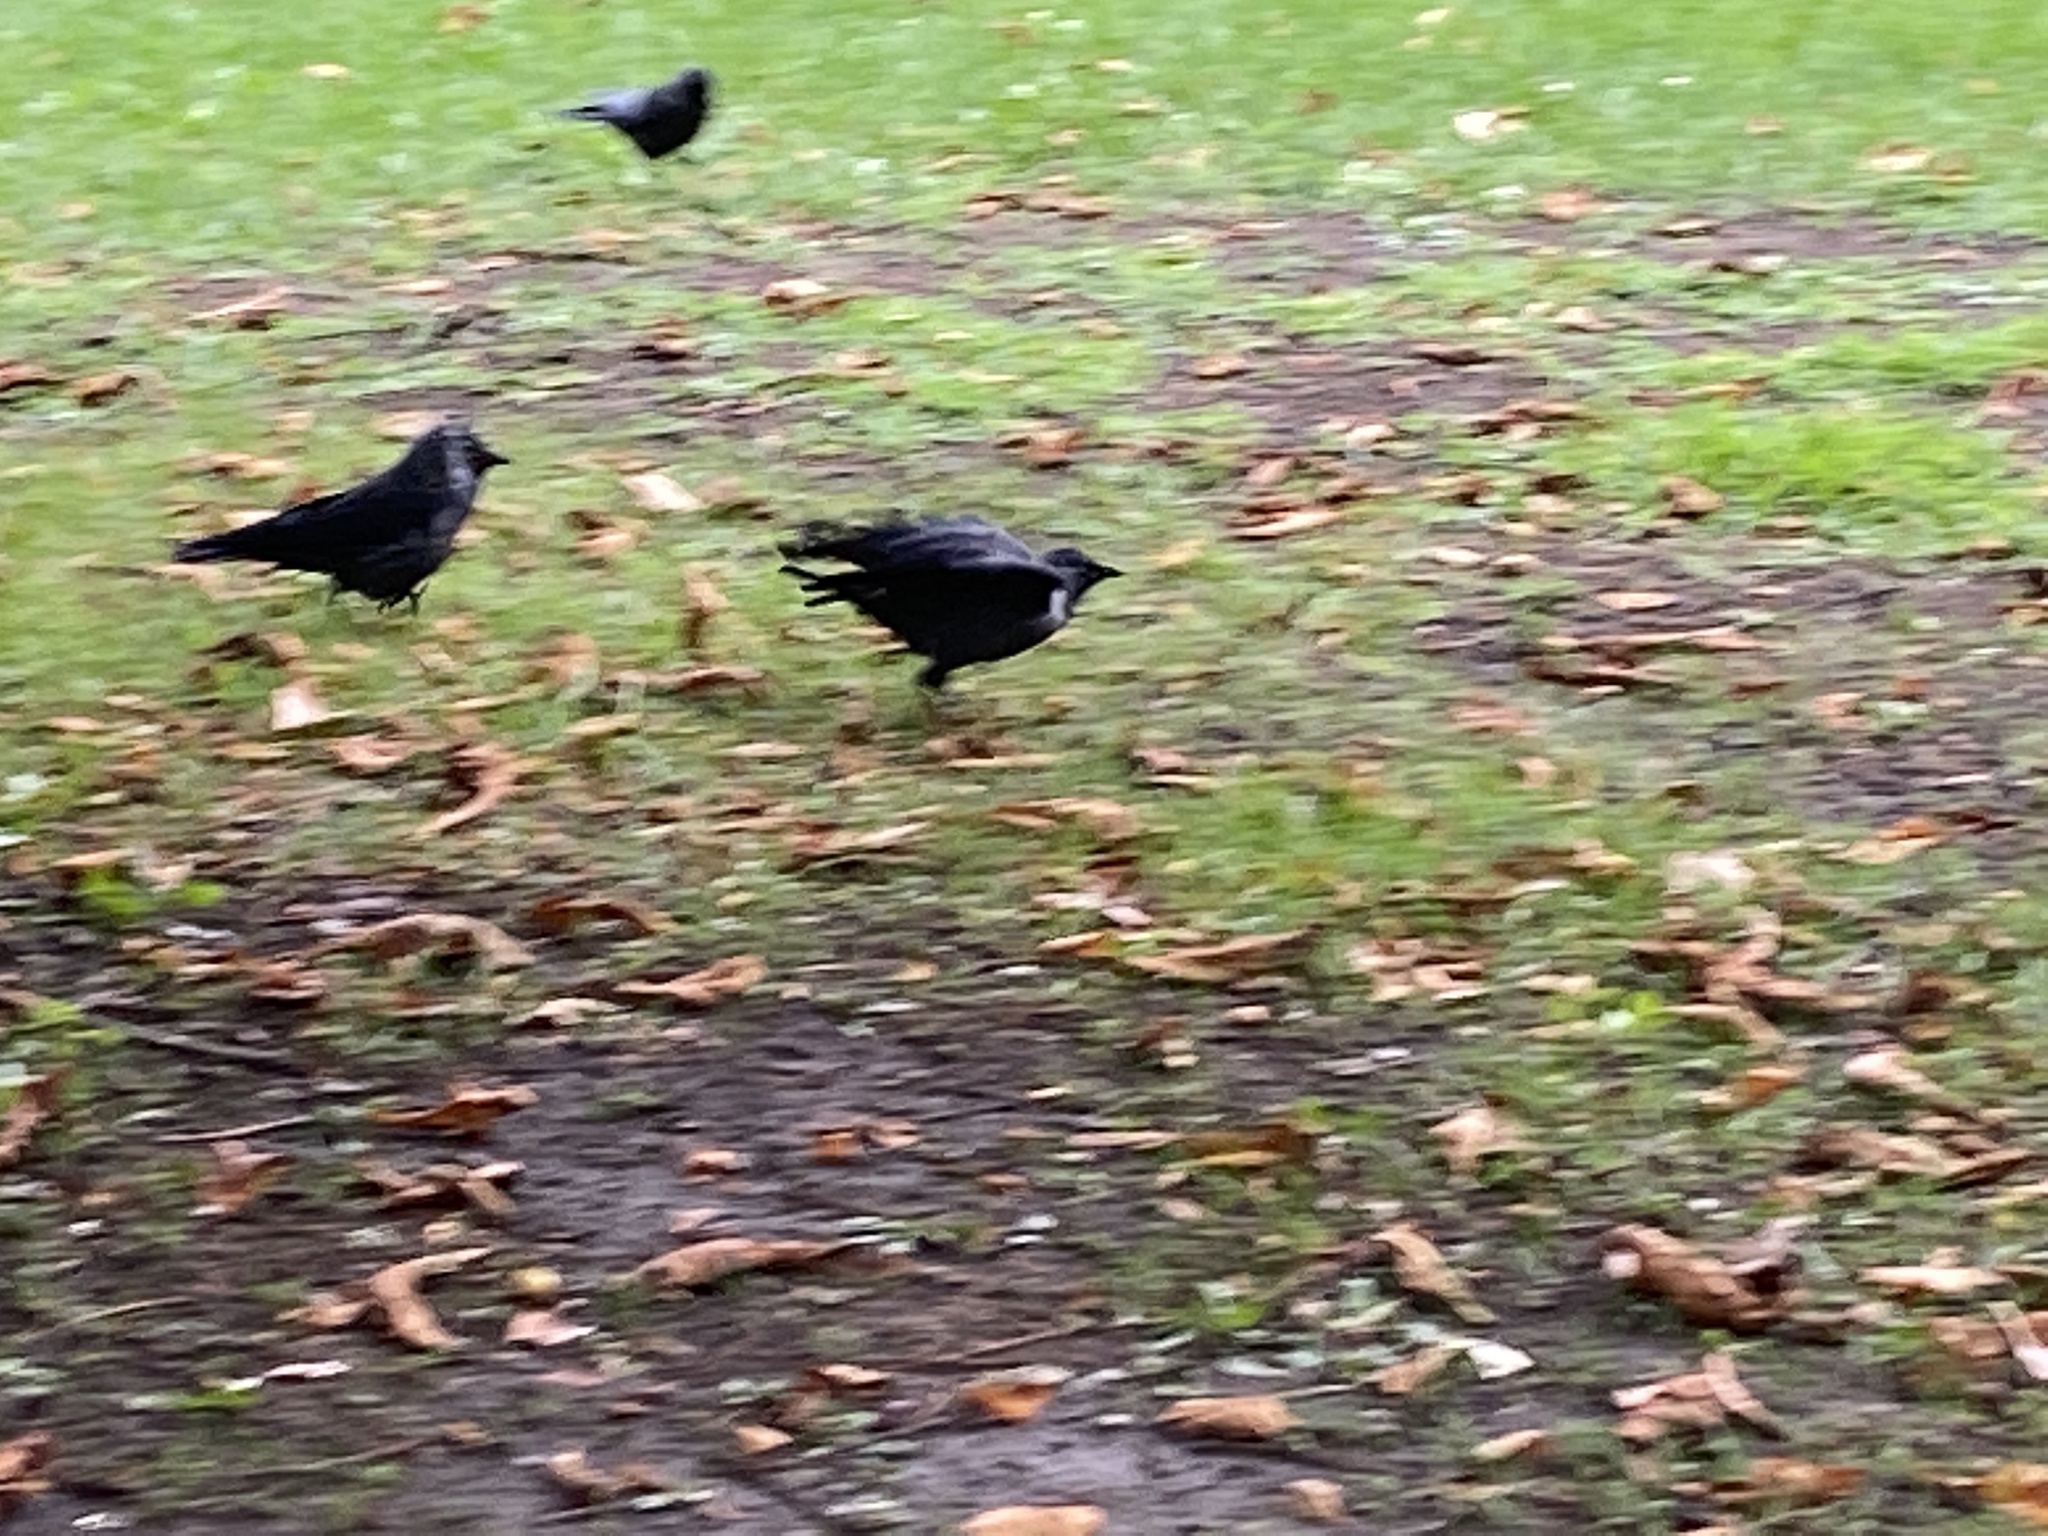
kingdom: Animalia
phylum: Chordata
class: Aves
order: Passeriformes
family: Corvidae
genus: Coloeus
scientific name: Coloeus monedula
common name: Western jackdaw
